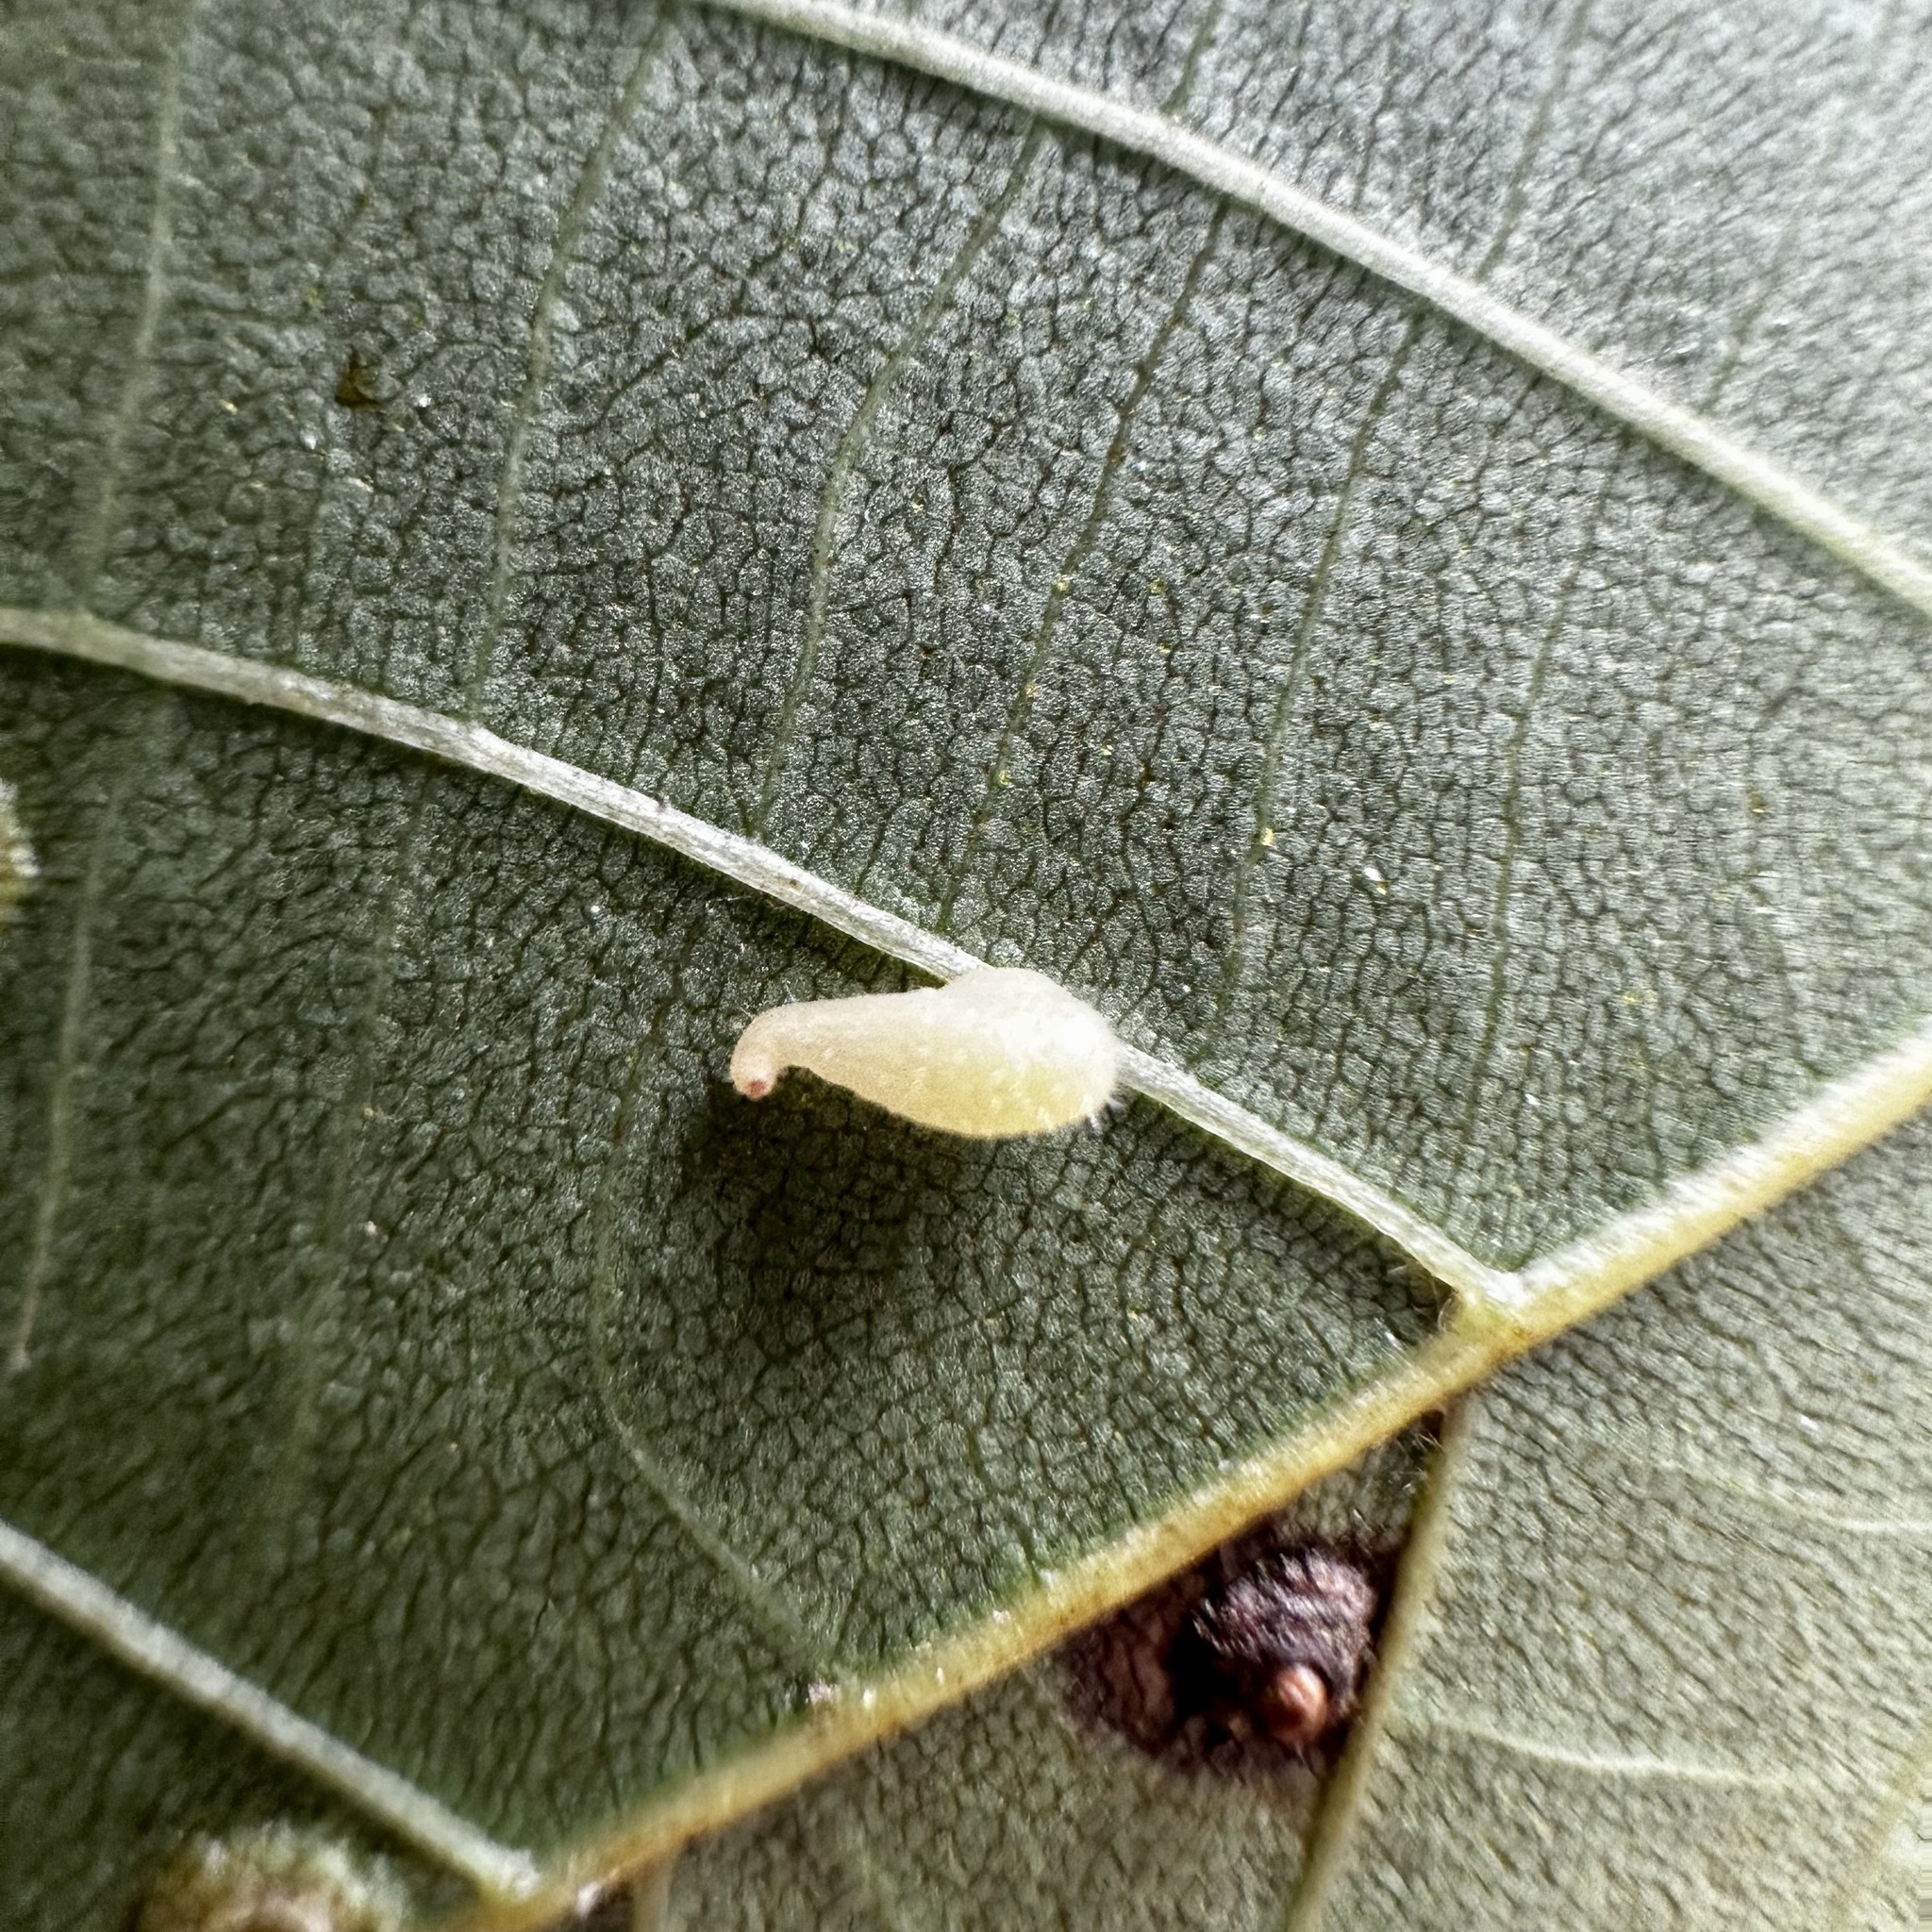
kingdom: Animalia
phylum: Arthropoda
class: Insecta
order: Diptera
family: Cecidomyiidae
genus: Caryomyia
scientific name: Caryomyia eumaris
